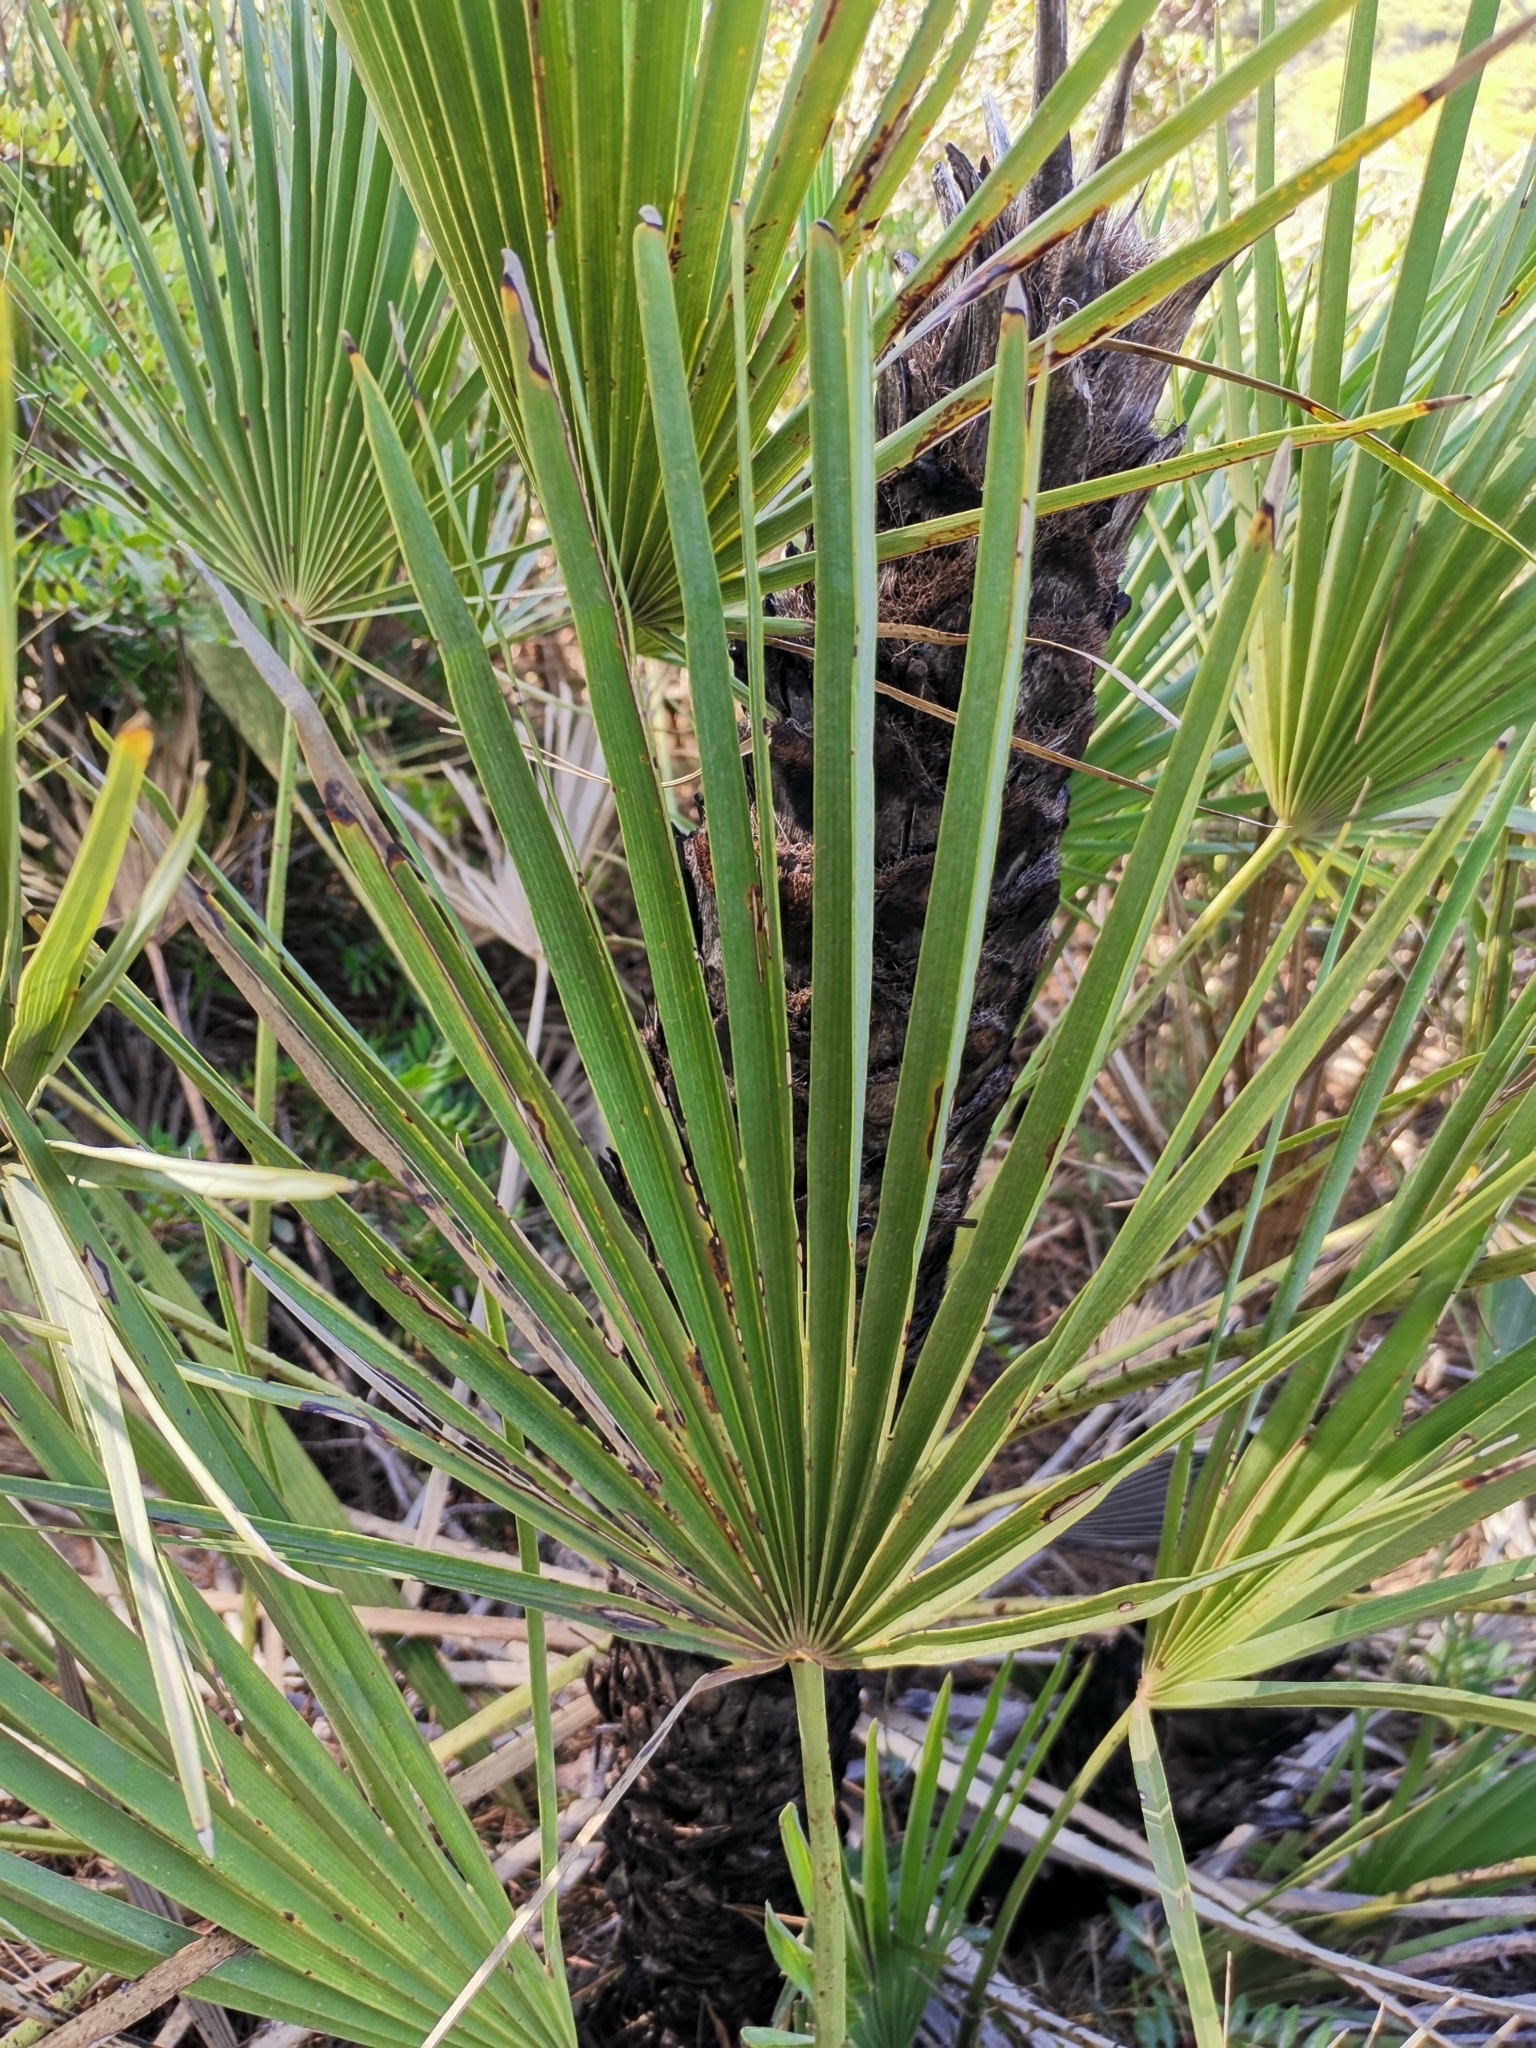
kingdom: Plantae
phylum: Tracheophyta
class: Liliopsida
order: Arecales
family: Arecaceae
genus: Chamaerops
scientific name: Chamaerops humilis
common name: Dwarf fan palm
